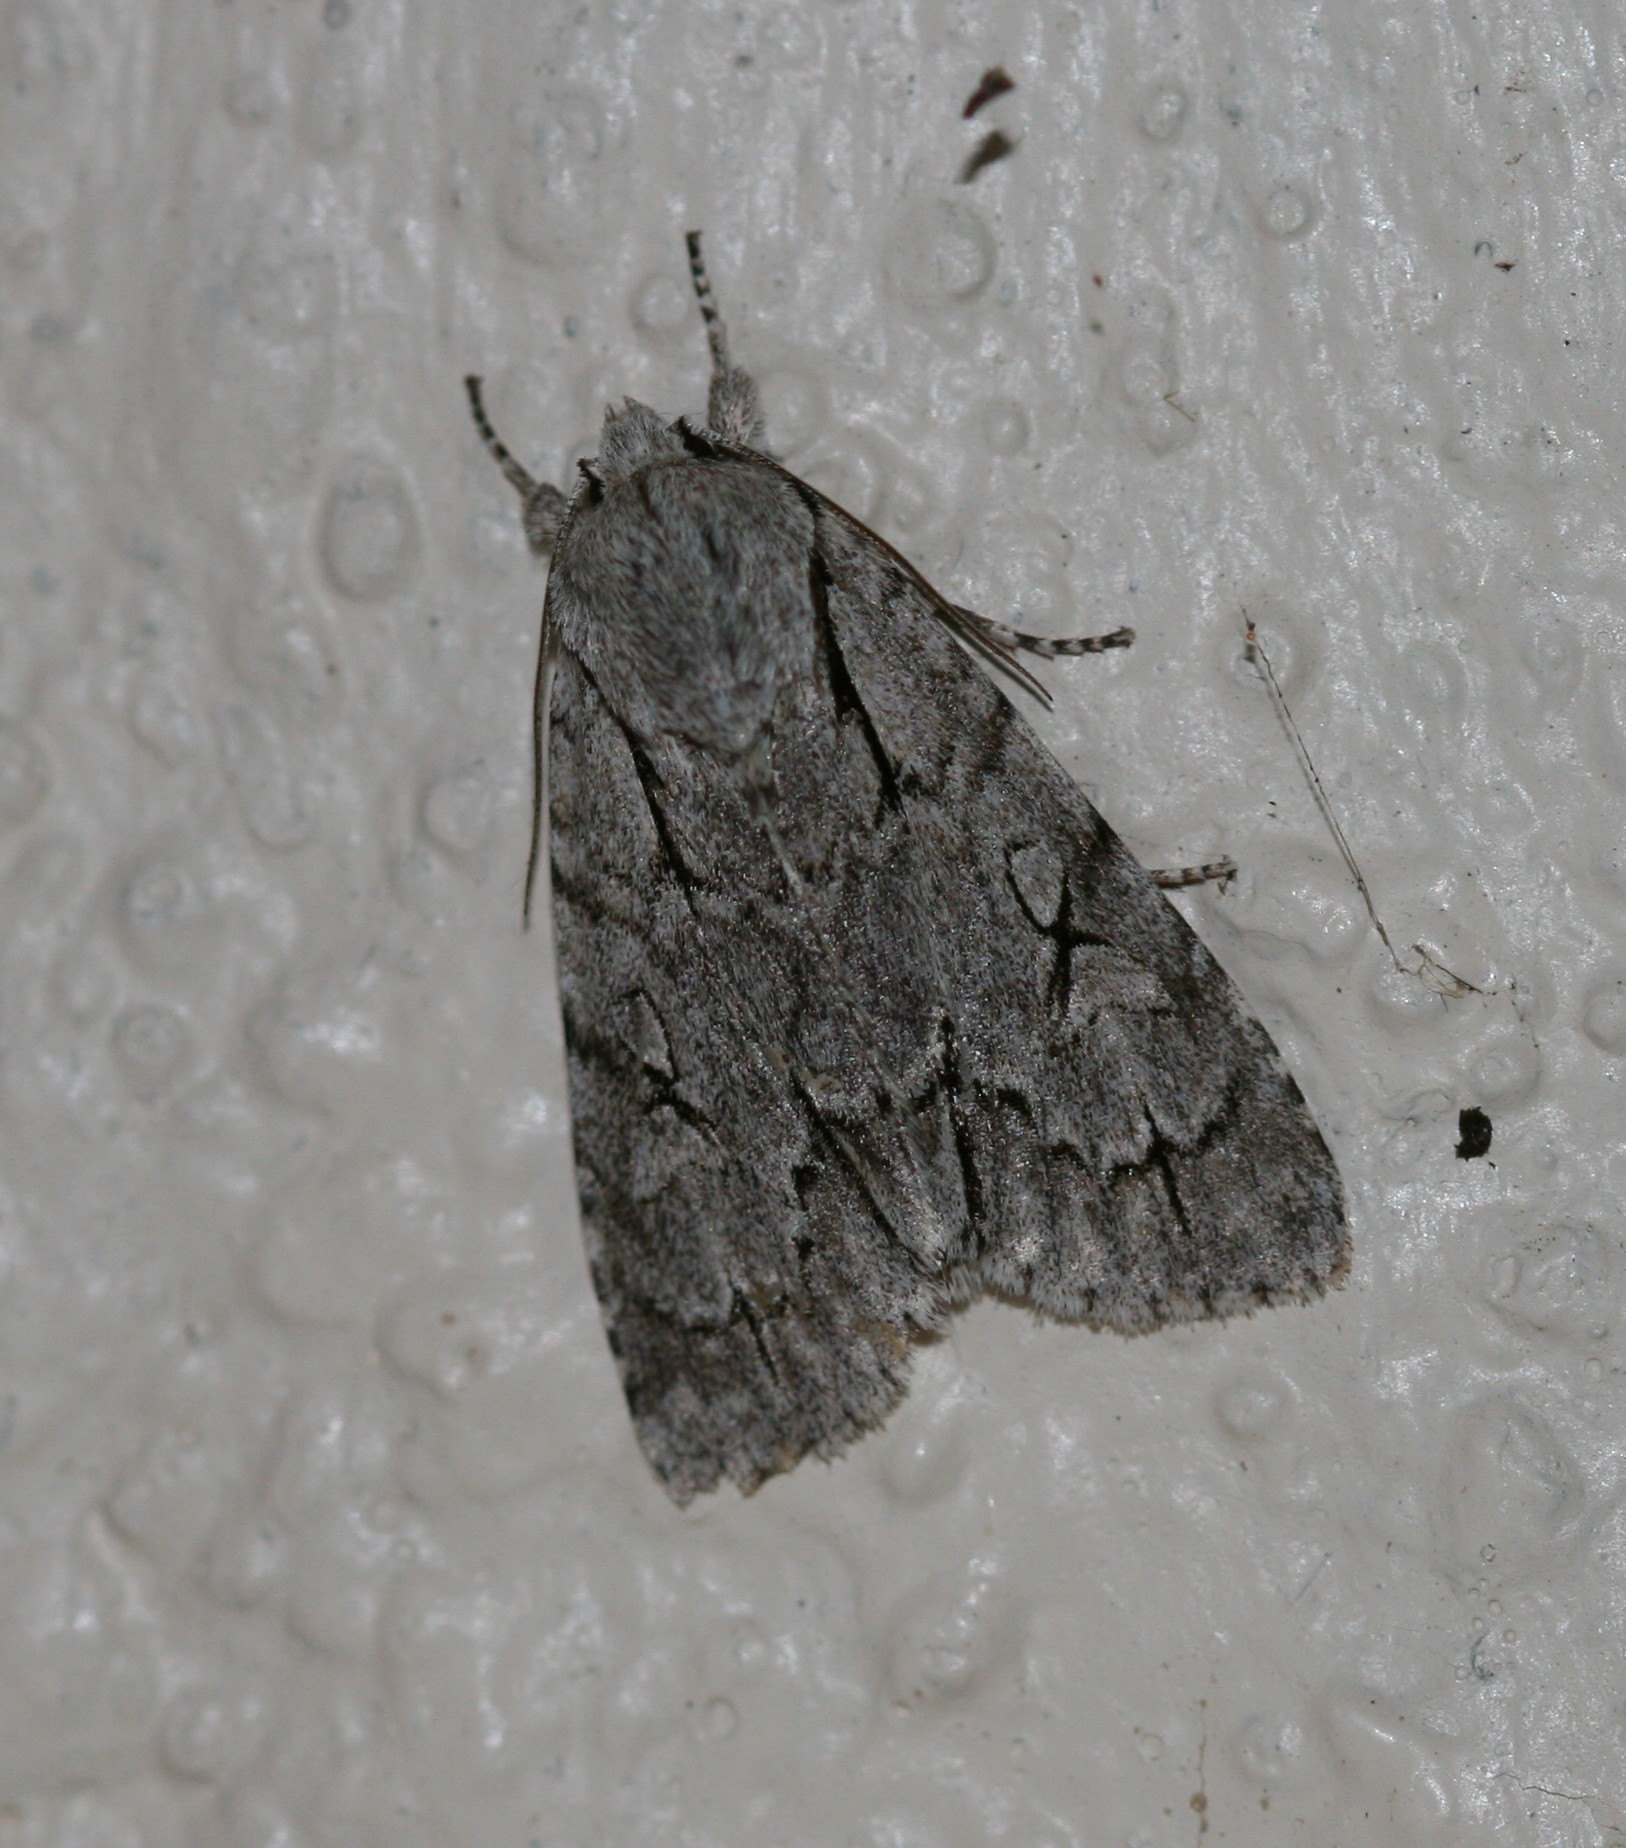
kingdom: Animalia
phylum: Arthropoda
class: Insecta
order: Lepidoptera
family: Noctuidae
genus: Acronicta
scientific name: Acronicta psi
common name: Grey dagger
